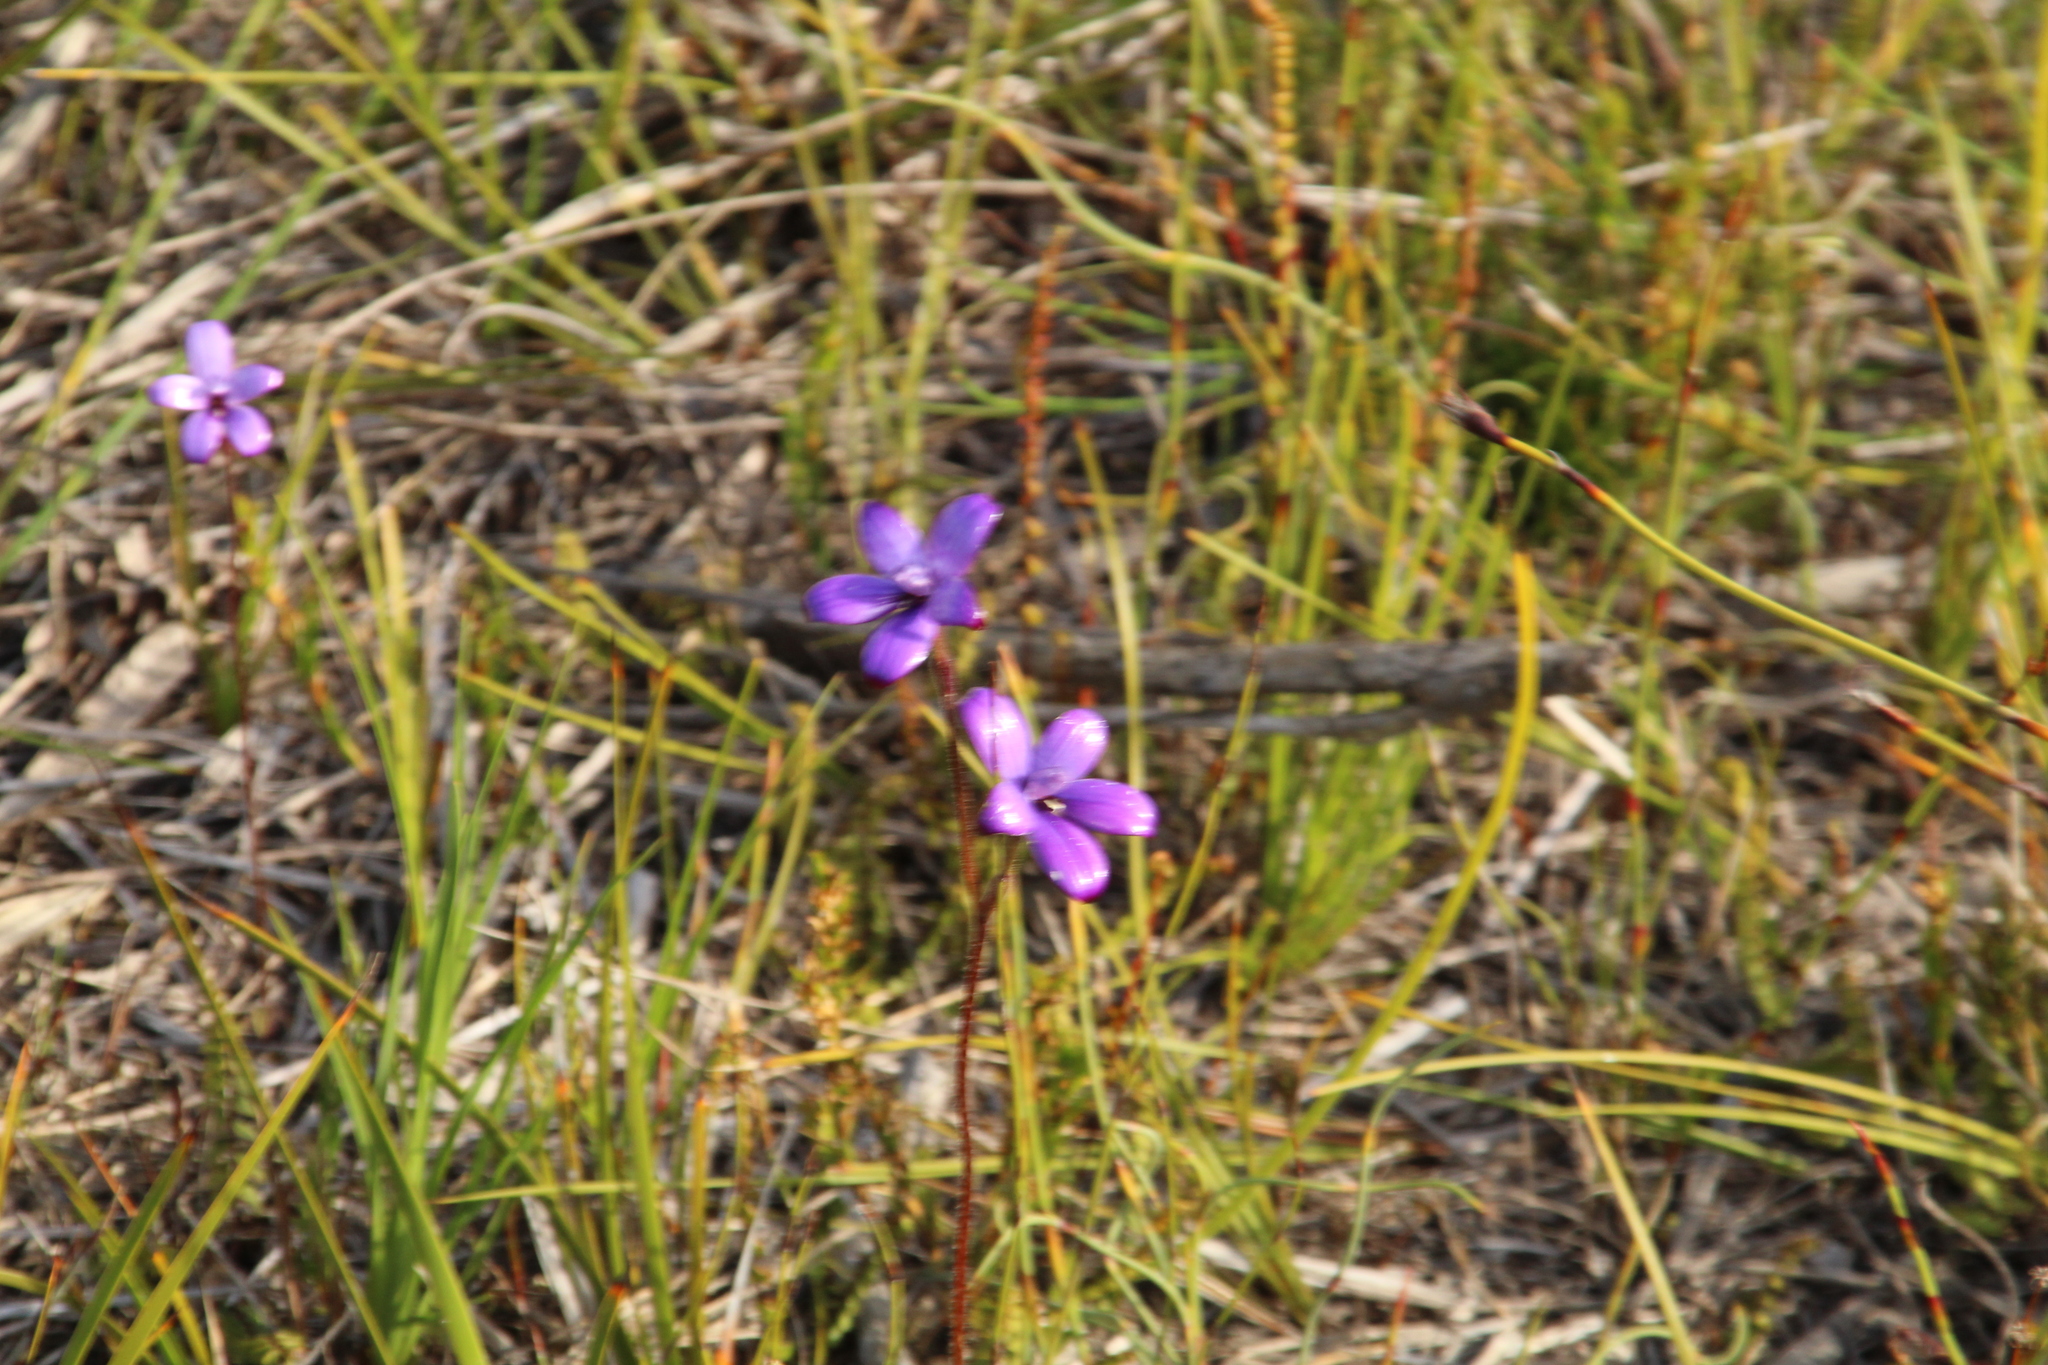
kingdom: Plantae
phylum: Tracheophyta
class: Liliopsida
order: Asparagales
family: Orchidaceae
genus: Caladenia
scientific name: Caladenia brunonis
